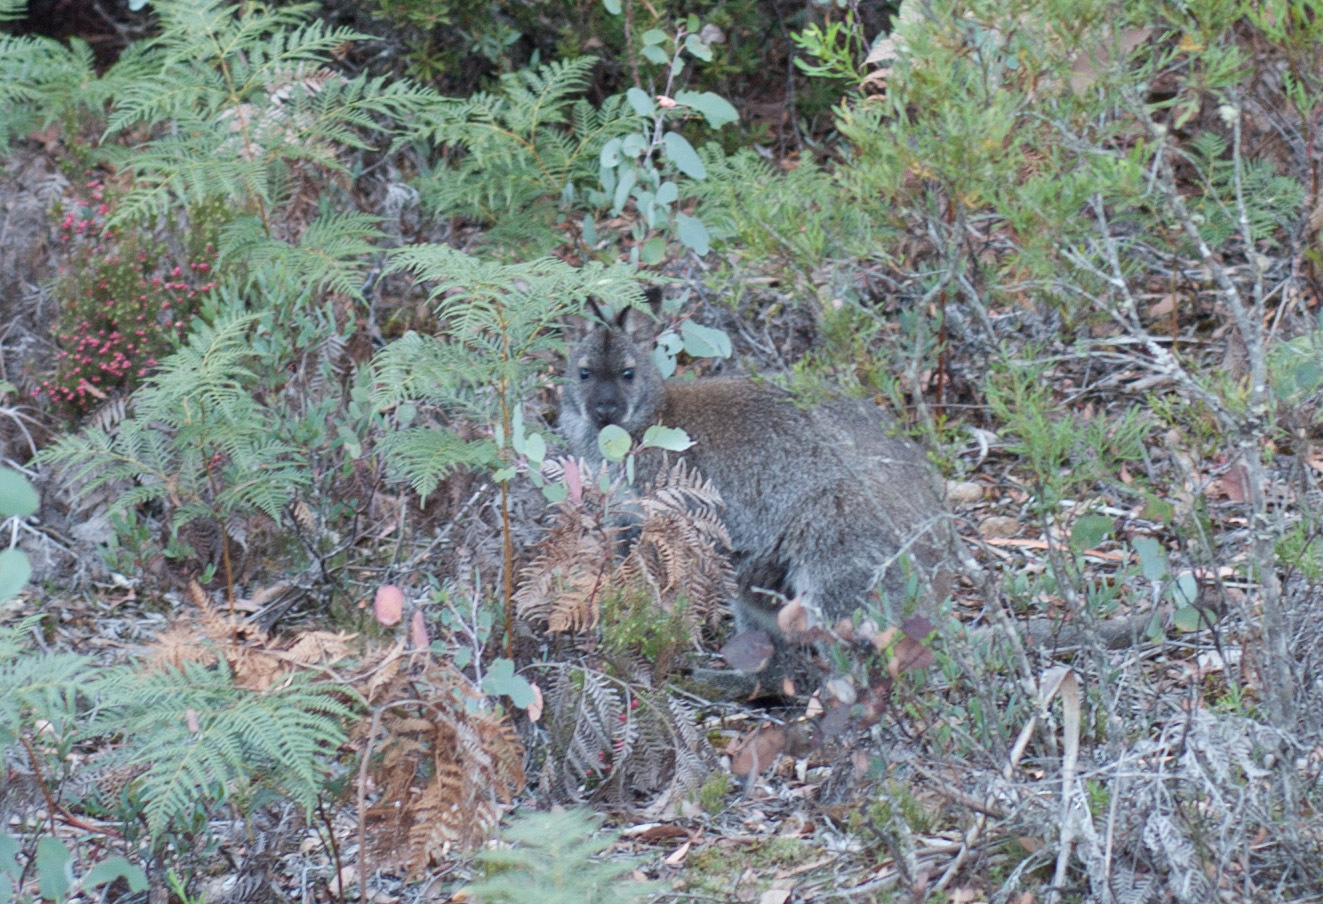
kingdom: Animalia
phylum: Chordata
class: Mammalia
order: Diprotodontia
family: Macropodidae
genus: Notamacropus
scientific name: Notamacropus rufogriseus
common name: Red-necked wallaby
